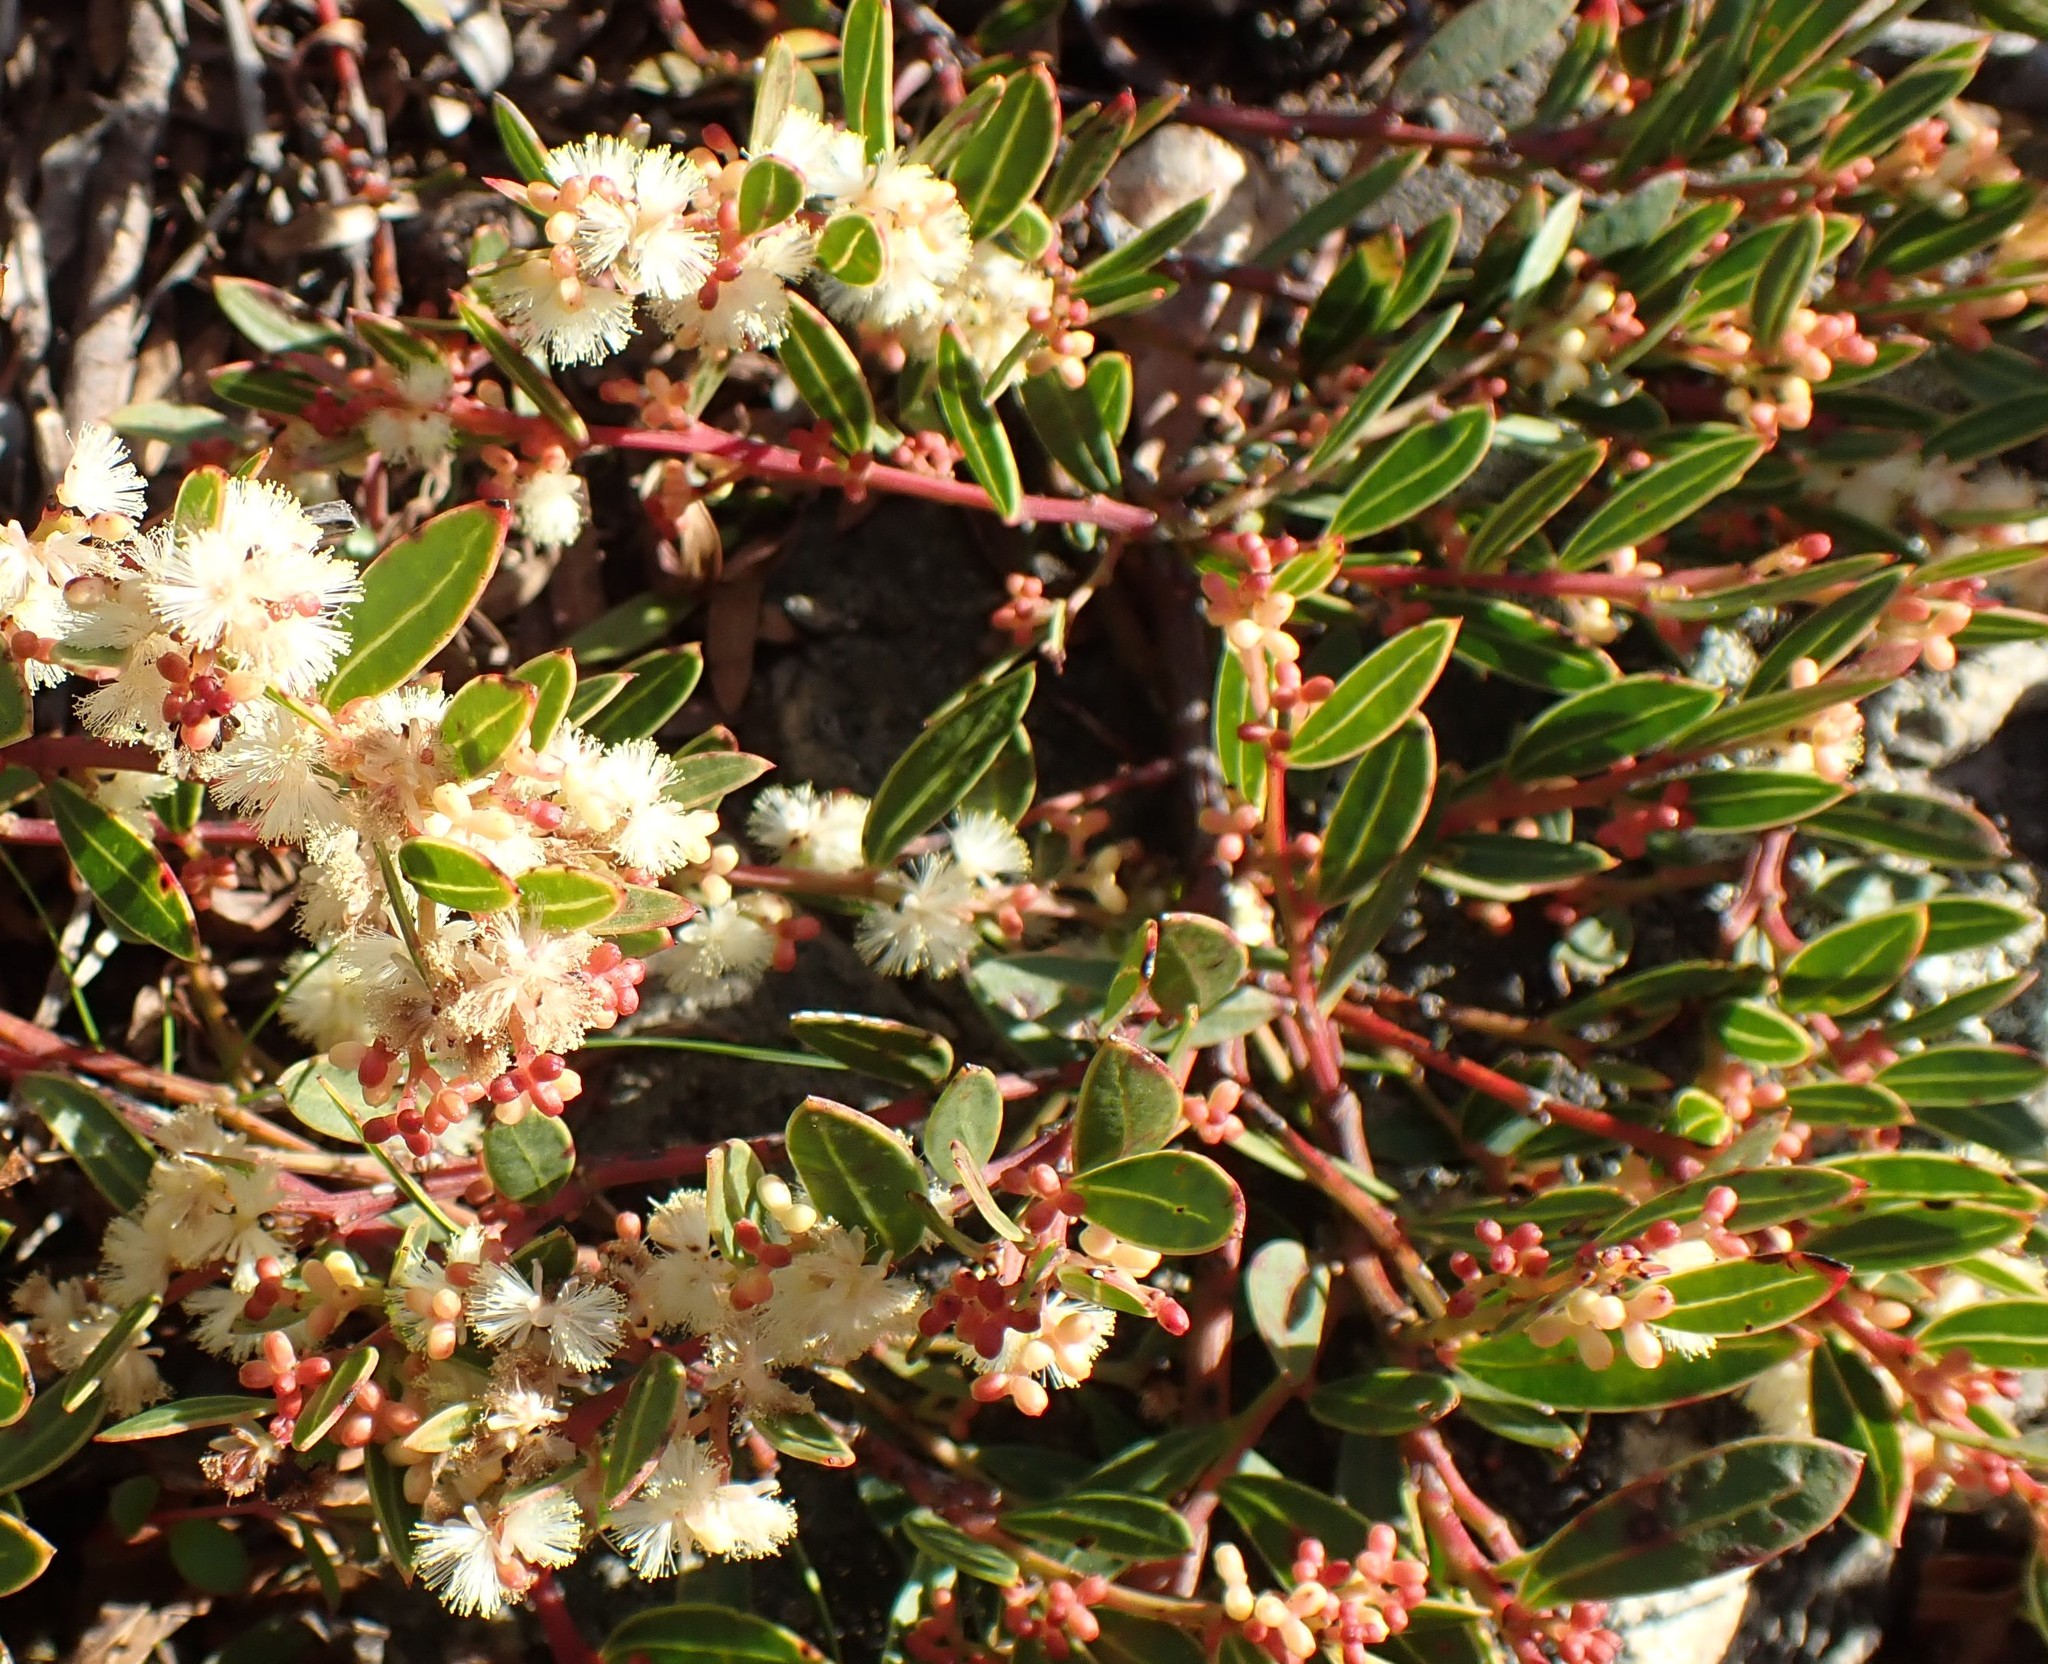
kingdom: Plantae
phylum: Tracheophyta
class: Magnoliopsida
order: Fabales
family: Fabaceae
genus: Acacia
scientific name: Acacia myrtifolia
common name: Myrtle wattle
